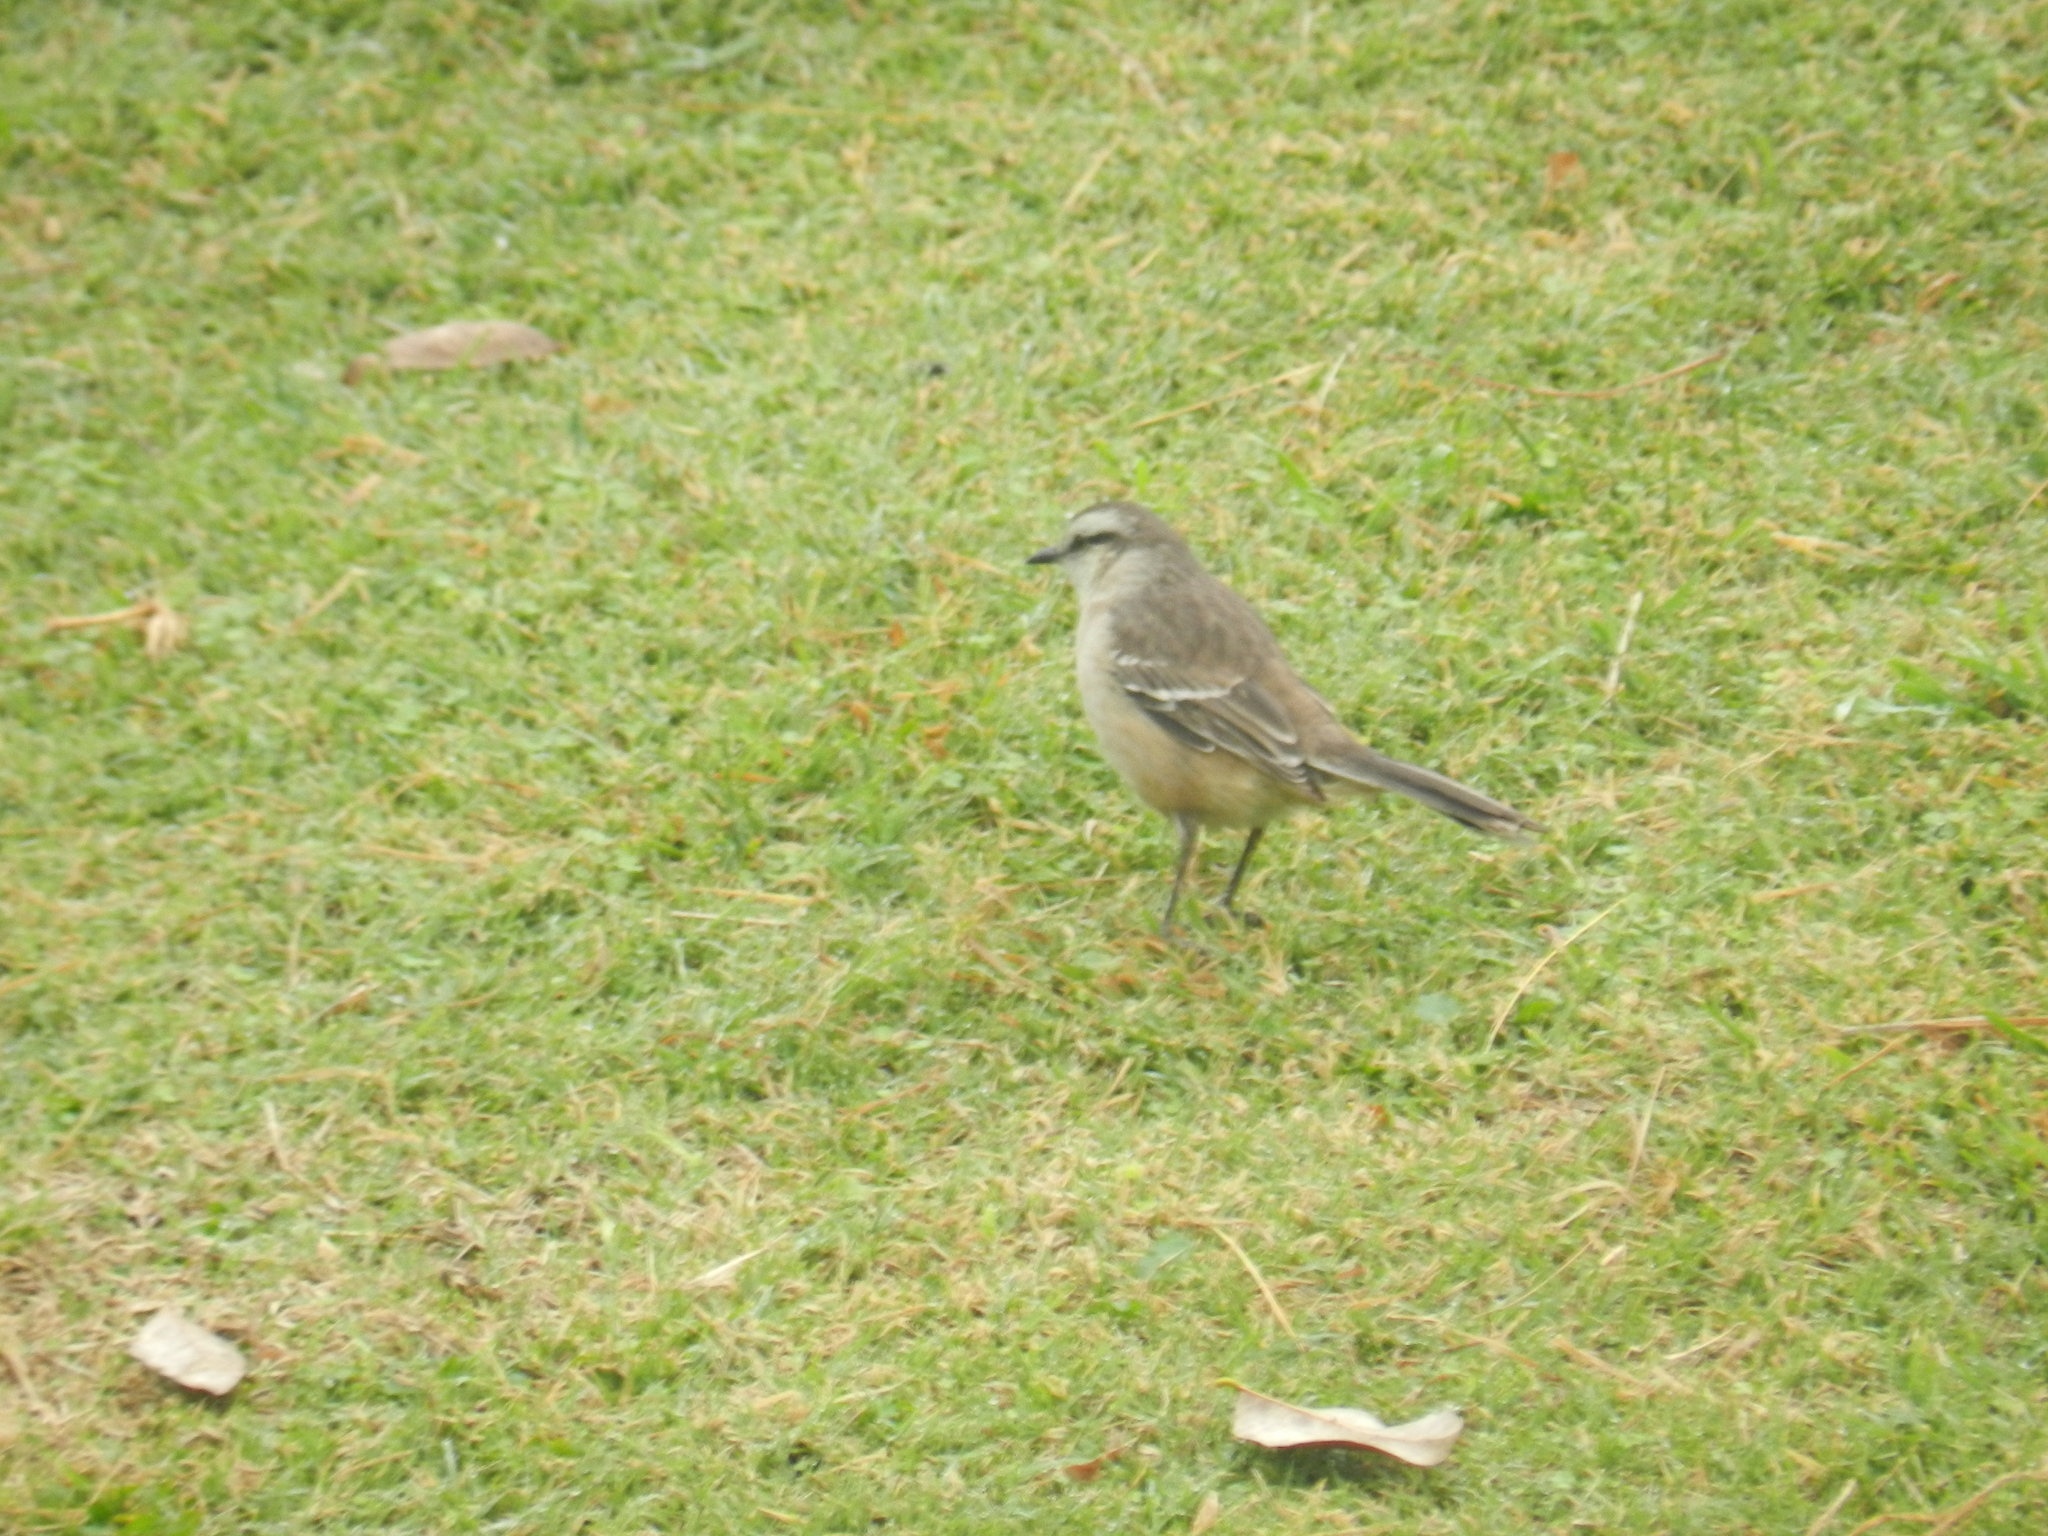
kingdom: Animalia
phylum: Chordata
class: Aves
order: Passeriformes
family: Mimidae
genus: Mimus
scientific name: Mimus saturninus
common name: Chalk-browed mockingbird
